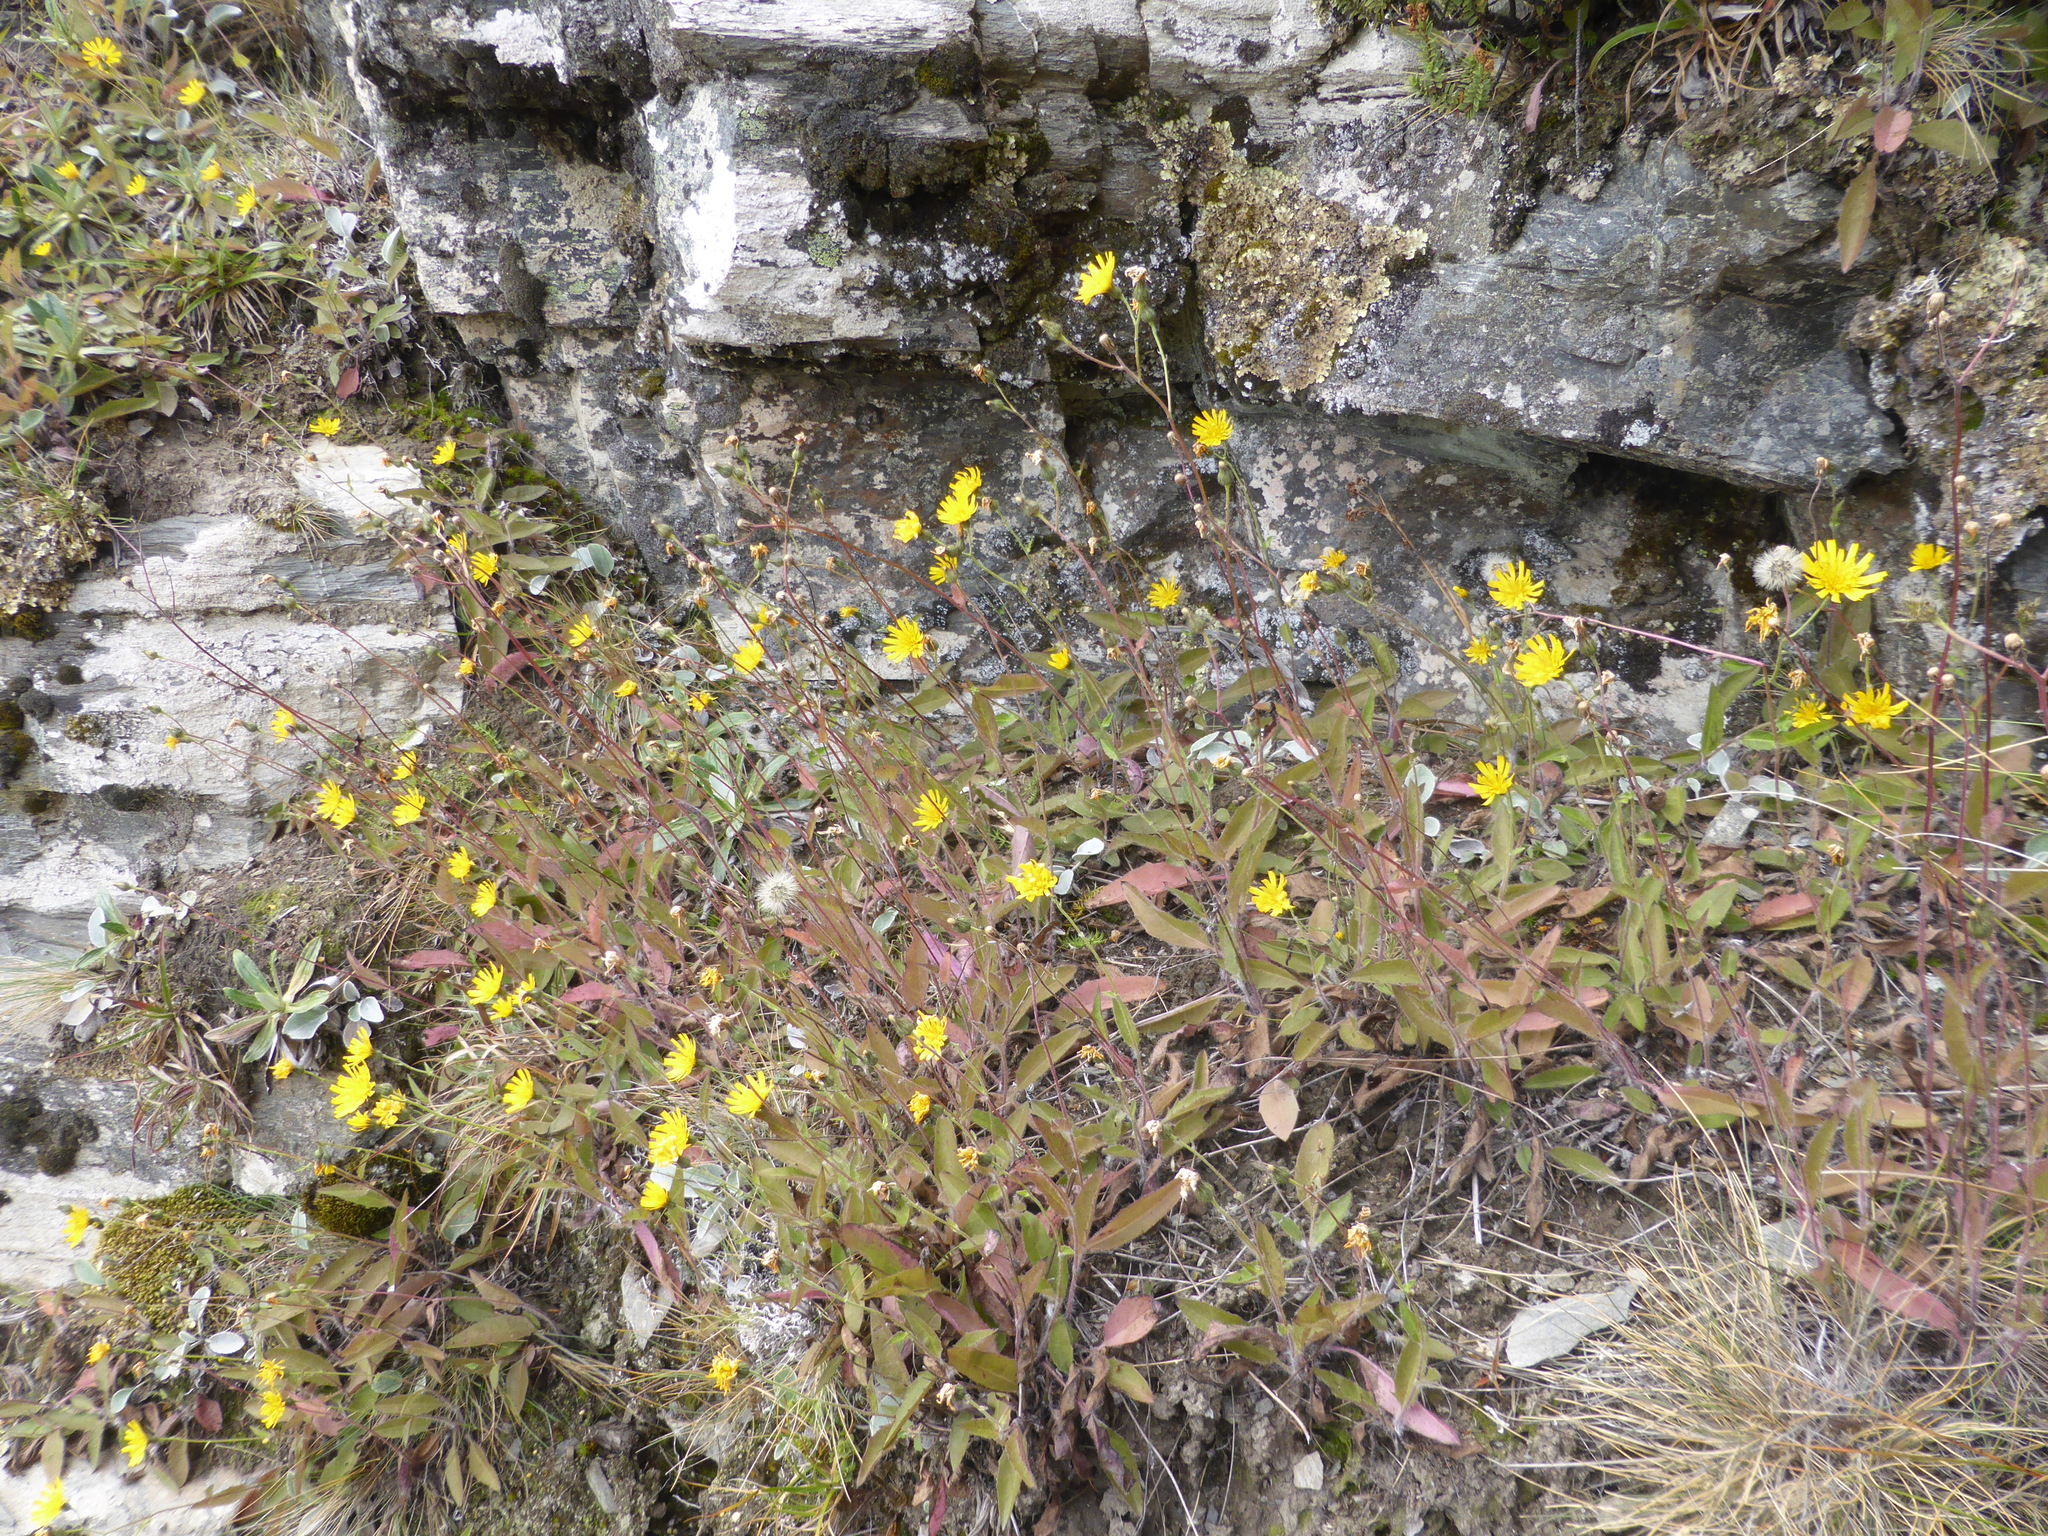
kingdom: Plantae
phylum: Tracheophyta
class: Magnoliopsida
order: Asterales
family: Asteraceae
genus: Hieracium
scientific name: Hieracium lepidulum
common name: Irregular-toothed hawkweed
